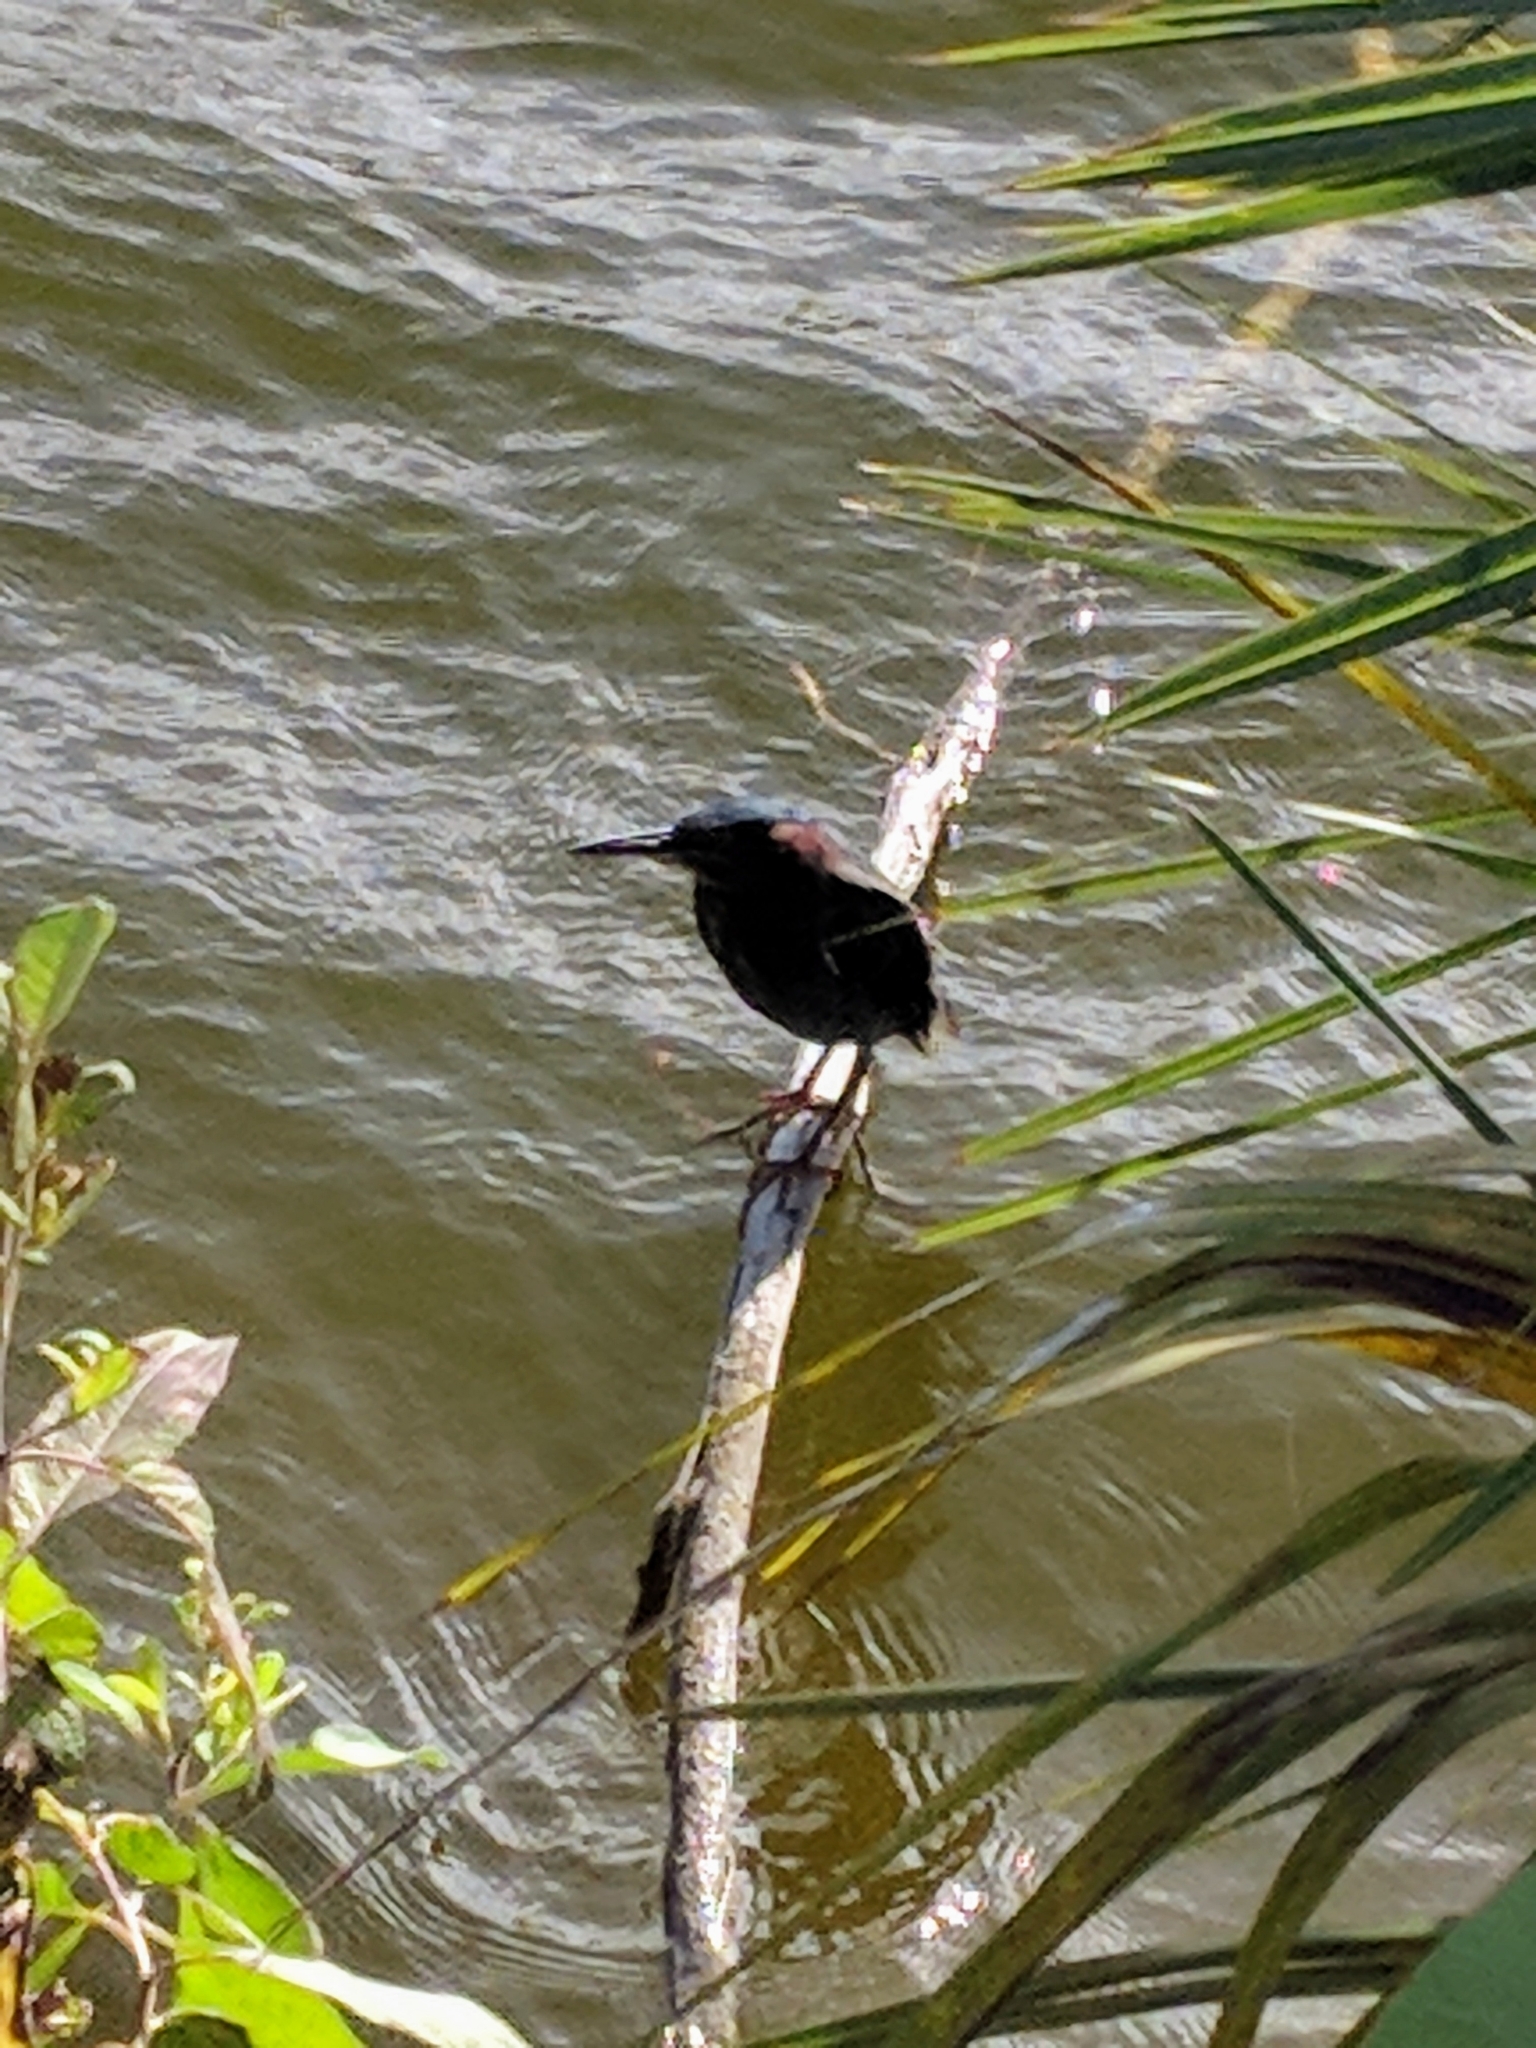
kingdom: Animalia
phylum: Chordata
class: Aves
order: Pelecaniformes
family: Ardeidae
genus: Butorides
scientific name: Butorides virescens
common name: Green heron
